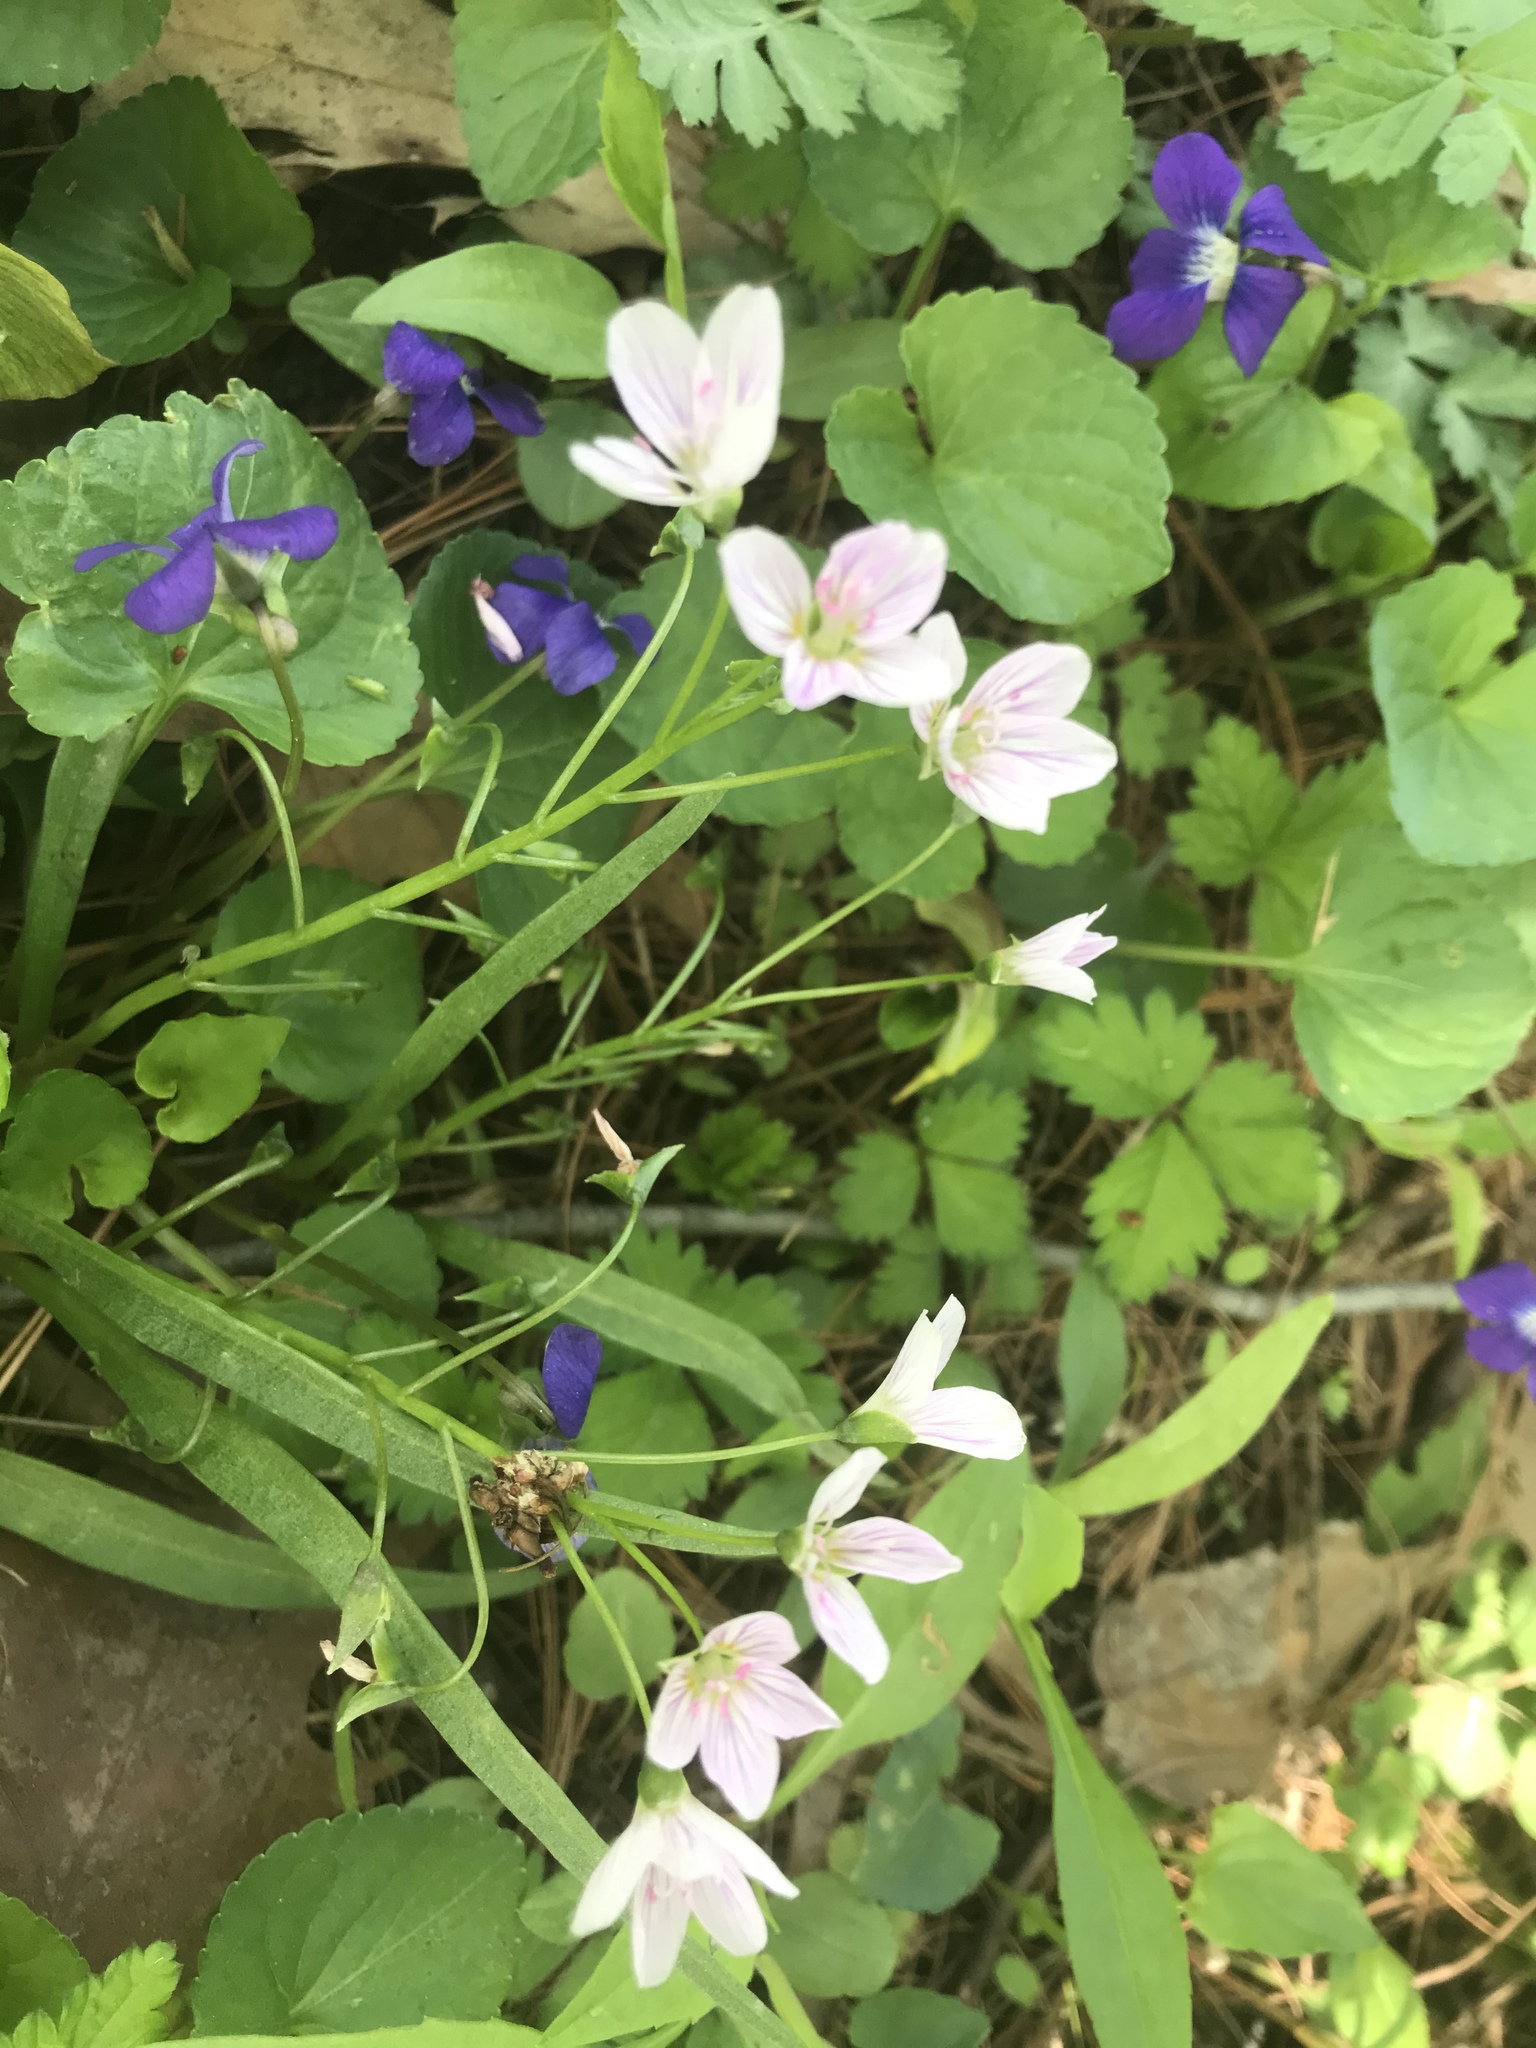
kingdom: Plantae
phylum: Tracheophyta
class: Magnoliopsida
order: Caryophyllales
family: Montiaceae
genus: Claytonia
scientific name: Claytonia virginica
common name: Virginia springbeauty
